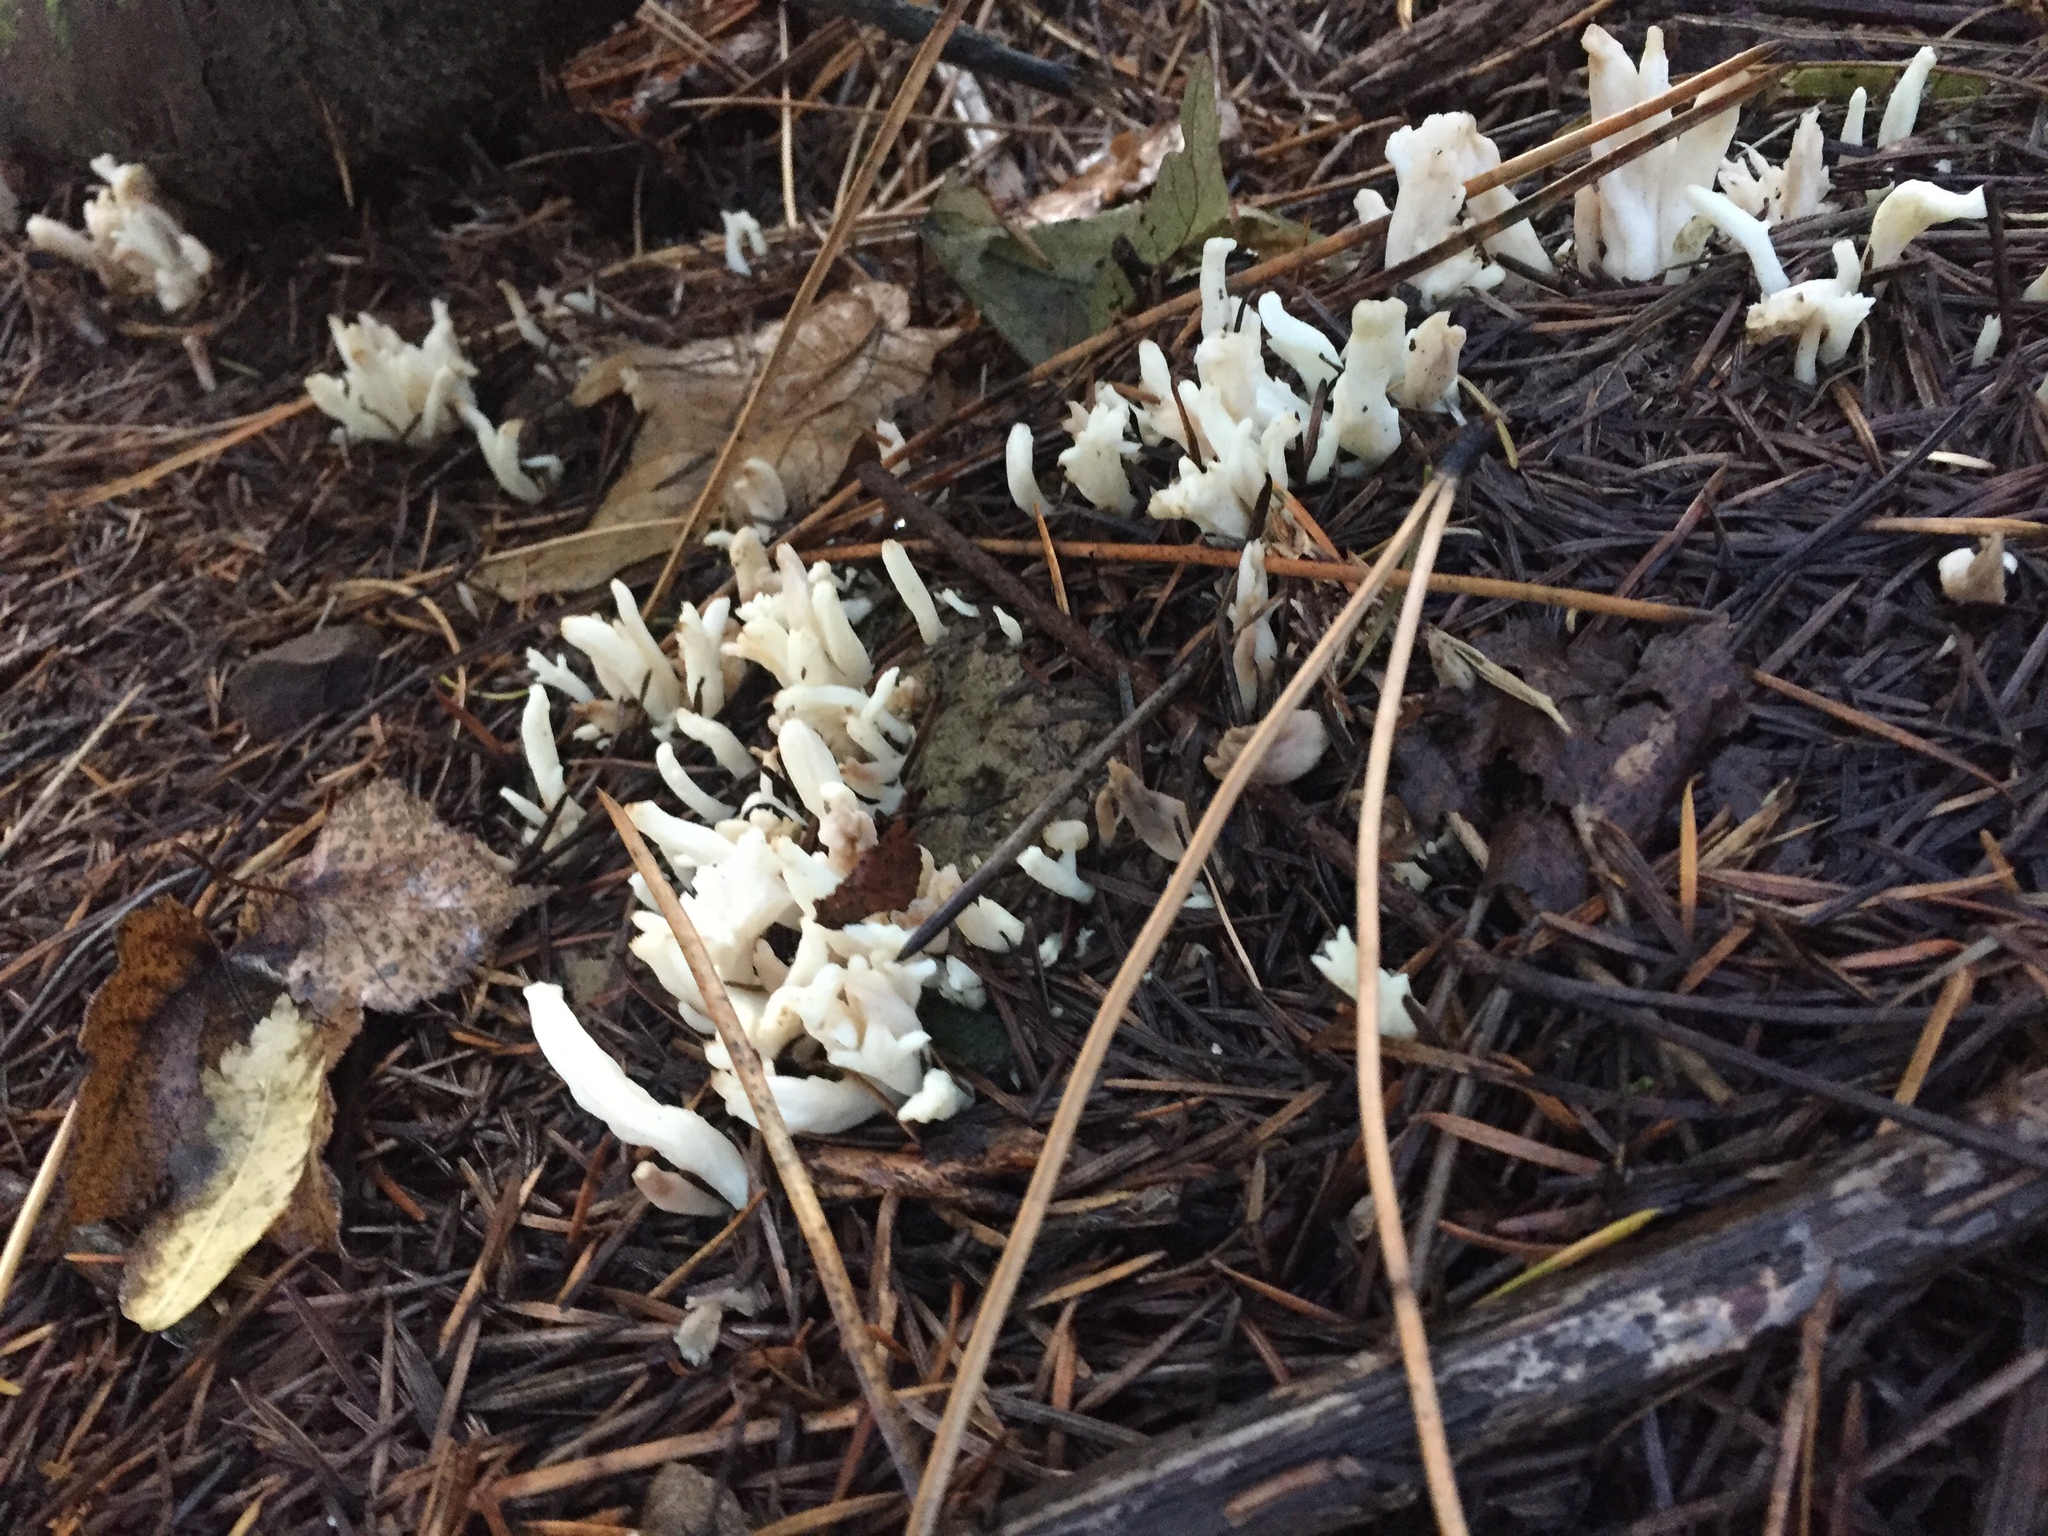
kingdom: Fungi
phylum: Basidiomycota
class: Agaricomycetes
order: Cantharellales
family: Hydnaceae
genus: Clavulina
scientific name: Clavulina rugosa
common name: Wrinkled club
